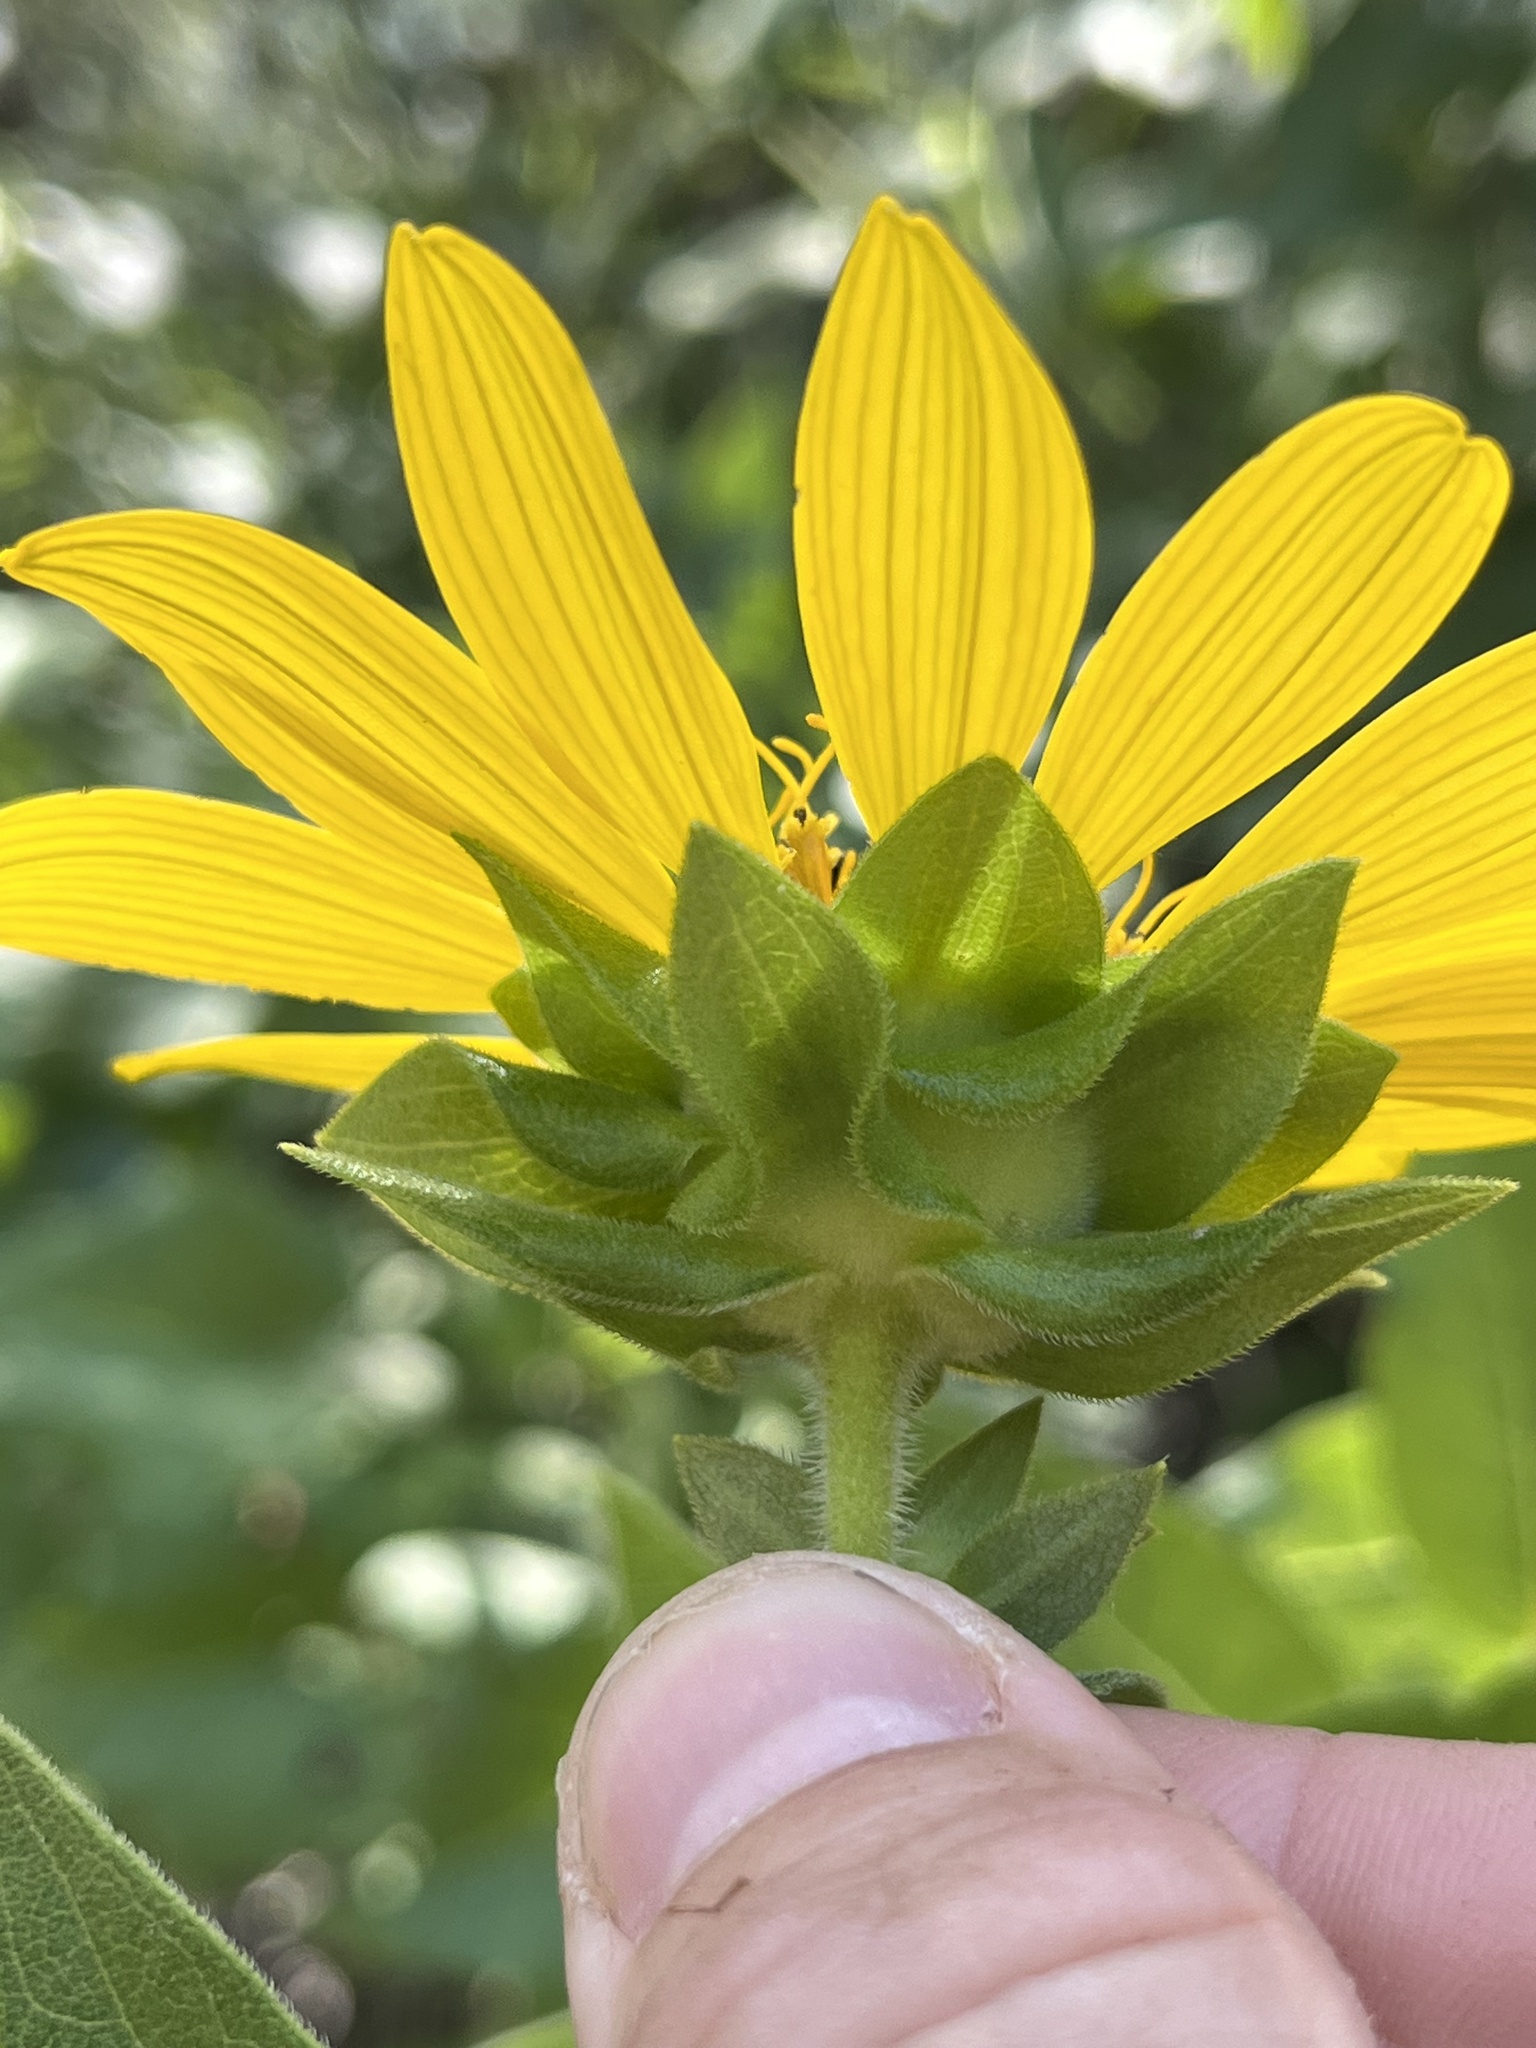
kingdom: Plantae
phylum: Tracheophyta
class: Magnoliopsida
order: Asterales
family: Asteraceae
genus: Silphium
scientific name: Silphium radula
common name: Roughleaf rosinweed
